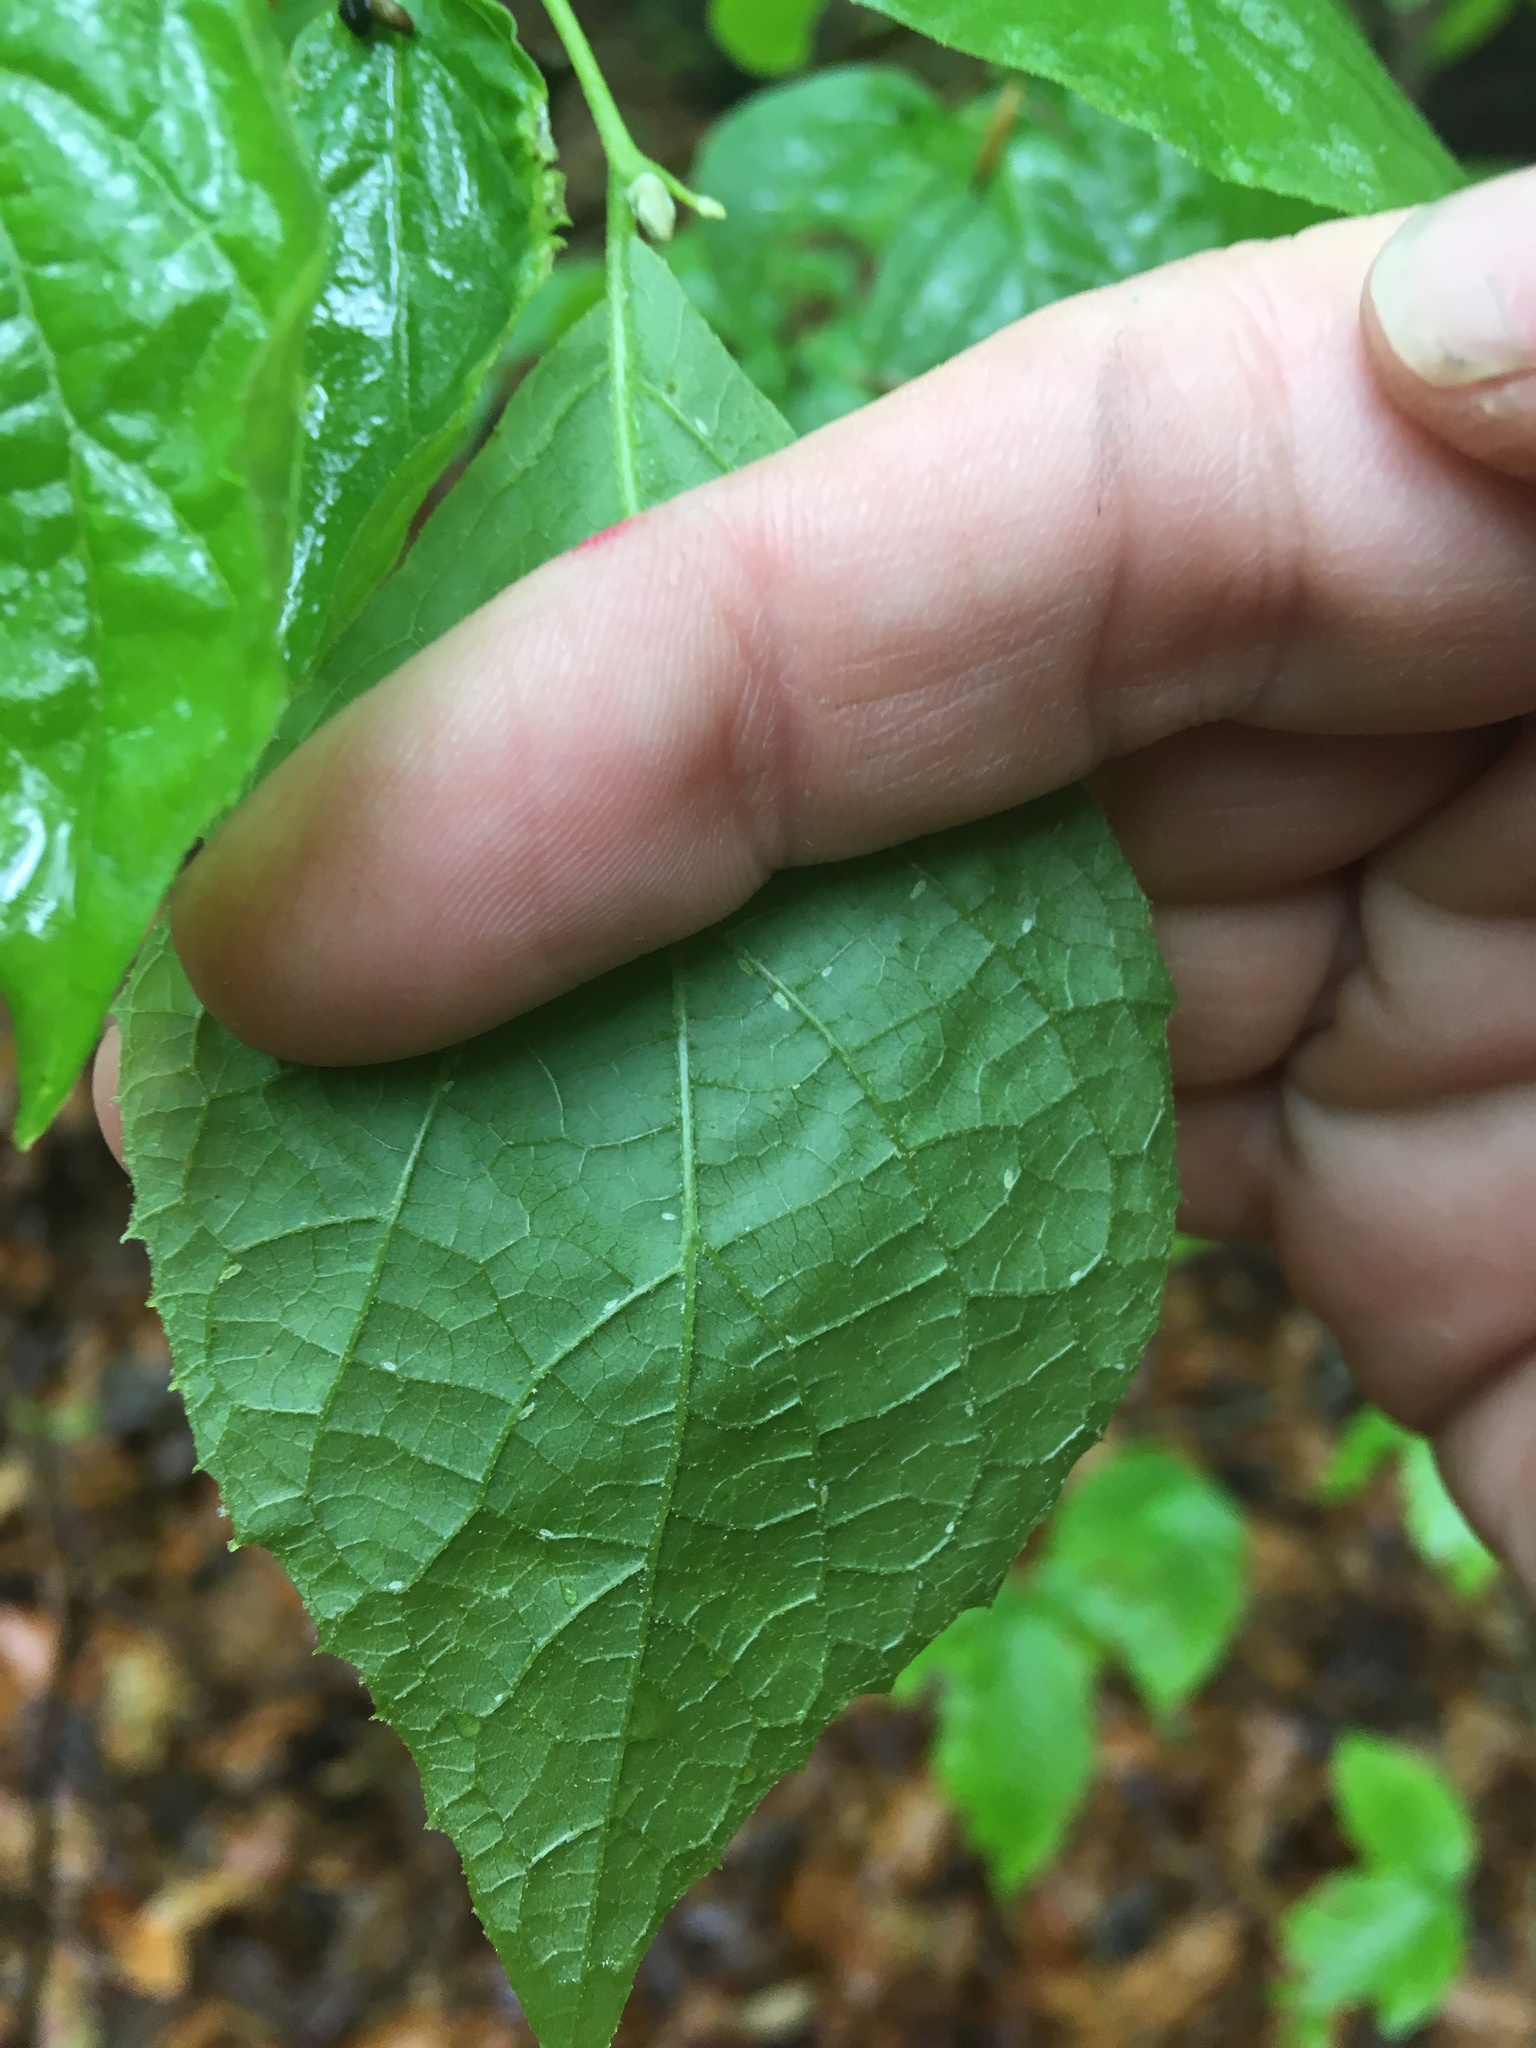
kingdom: Plantae
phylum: Tracheophyta
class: Magnoliopsida
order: Ericales
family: Styracaceae
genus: Styrax
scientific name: Styrax grandifolius
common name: Big-leaf snowbell
